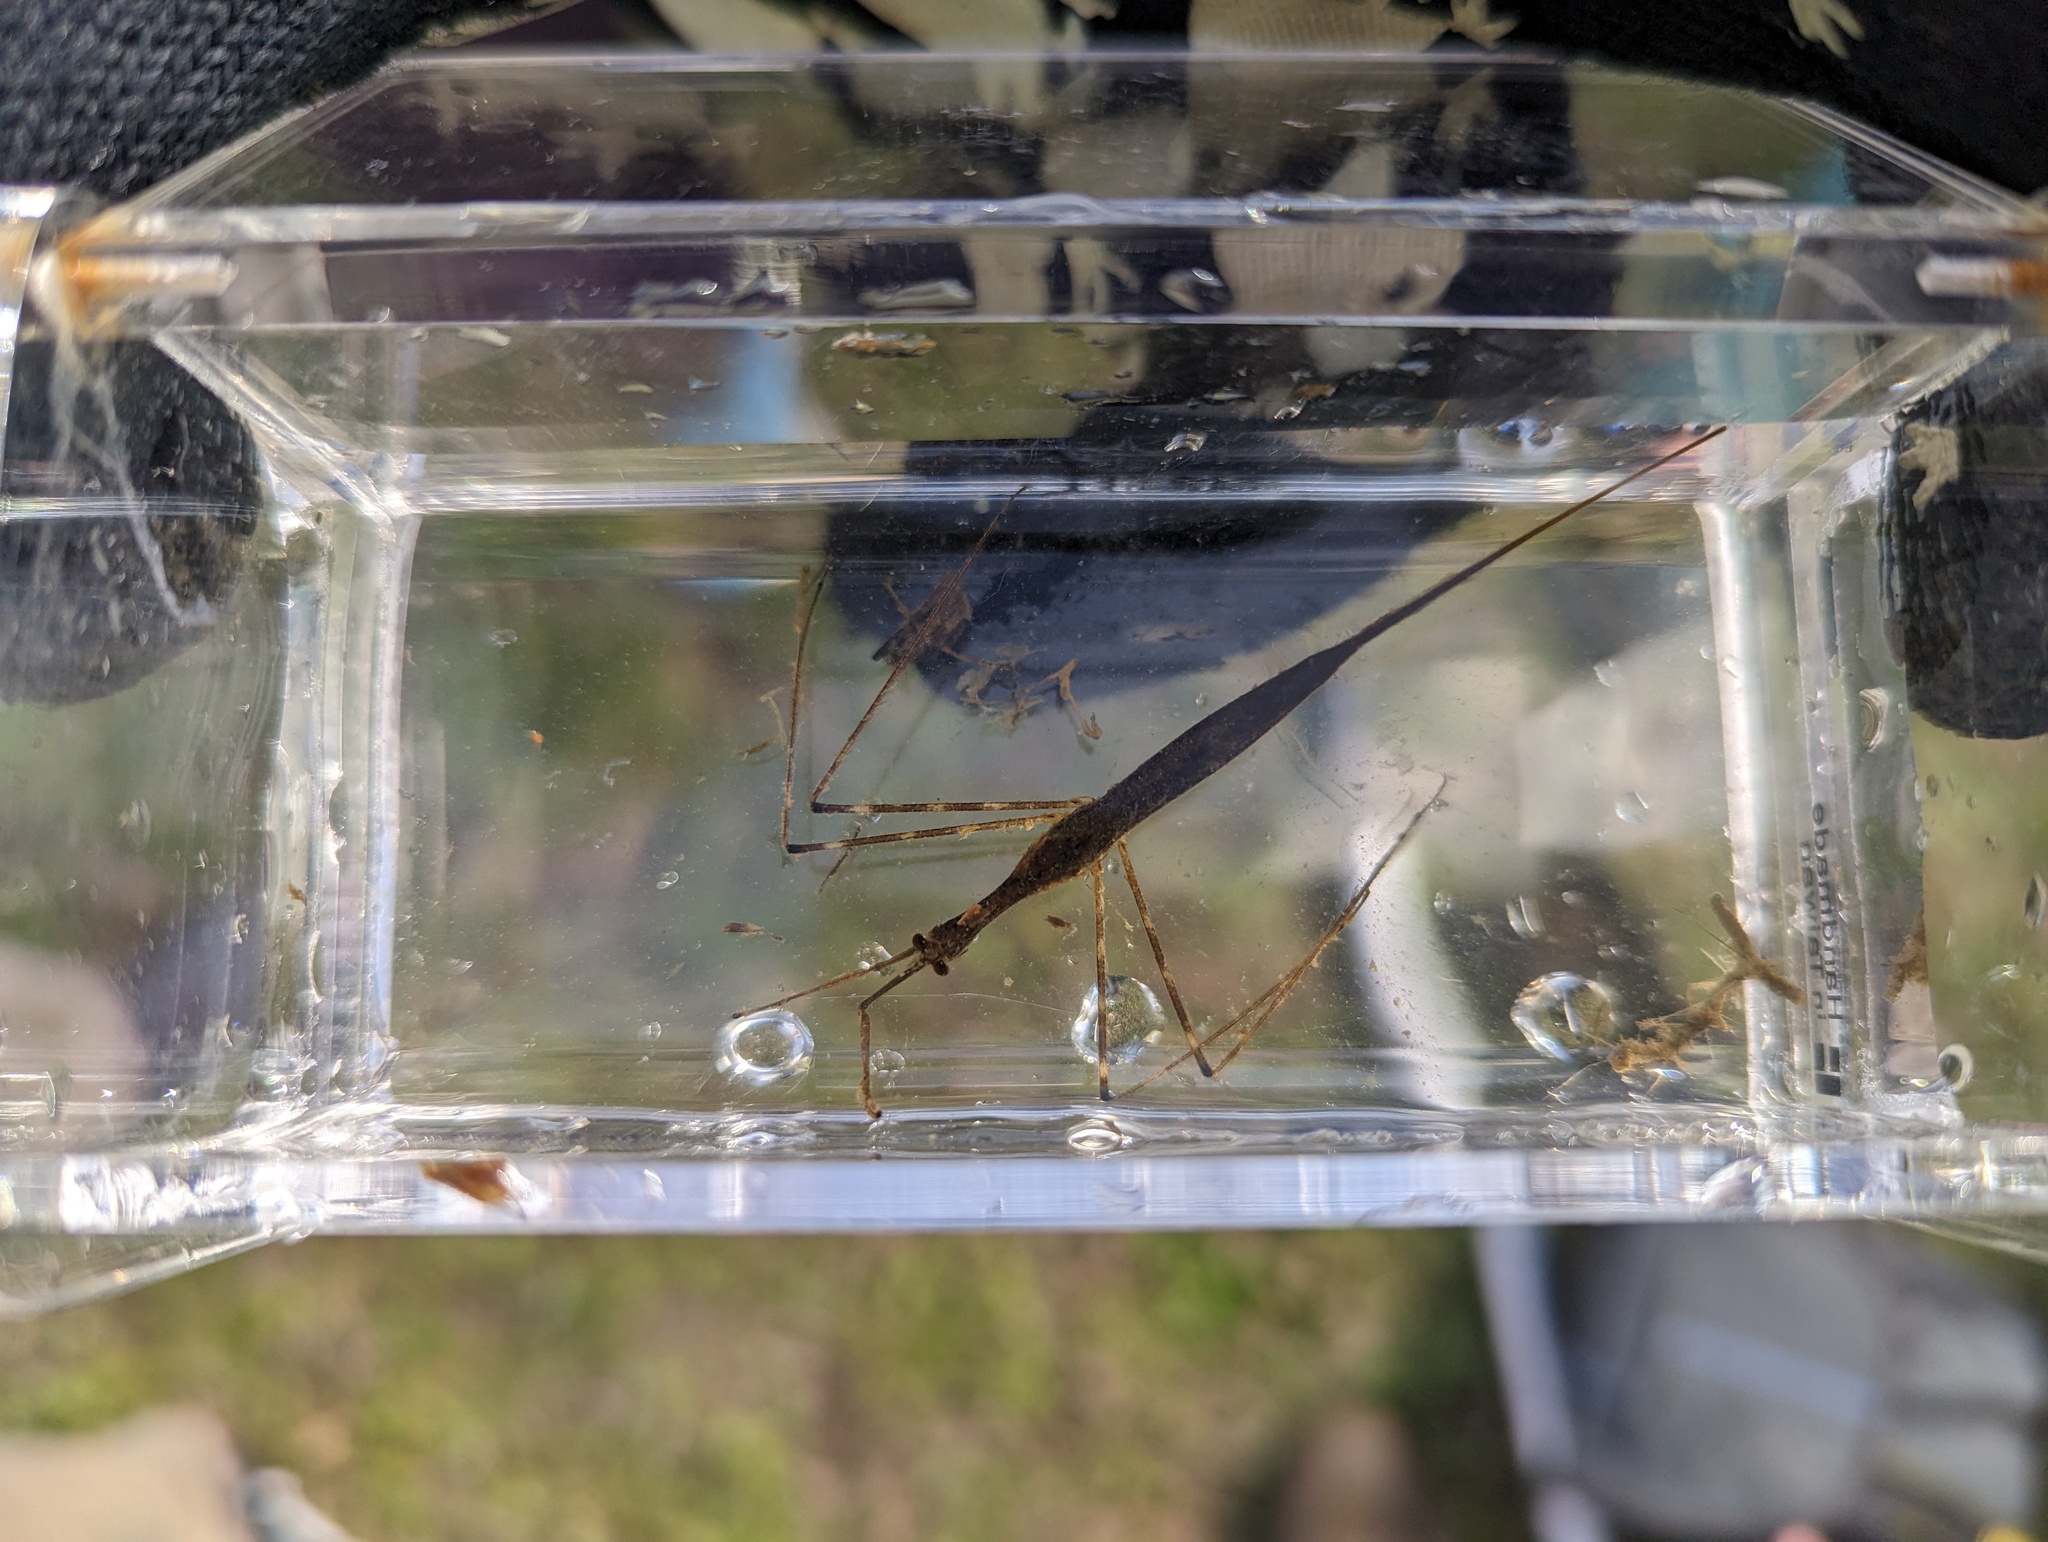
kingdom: Animalia
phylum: Arthropoda
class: Insecta
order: Hemiptera
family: Nepidae
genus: Ranatra
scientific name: Ranatra
